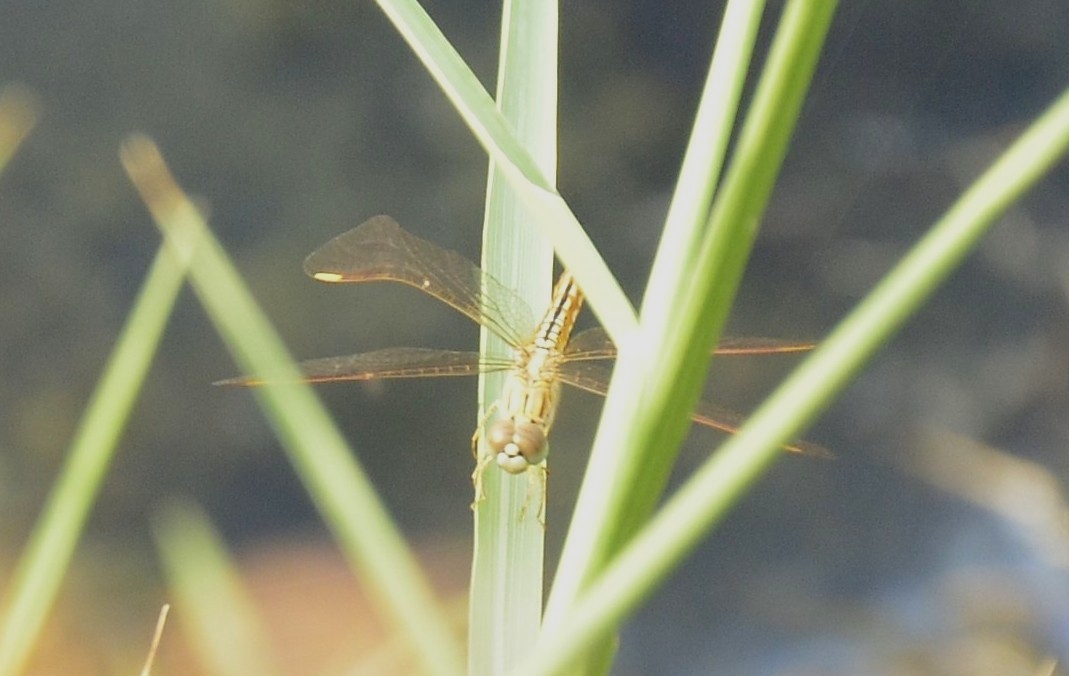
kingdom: Animalia
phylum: Arthropoda
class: Insecta
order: Odonata
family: Libellulidae
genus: Brachythemis
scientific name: Brachythemis contaminata
